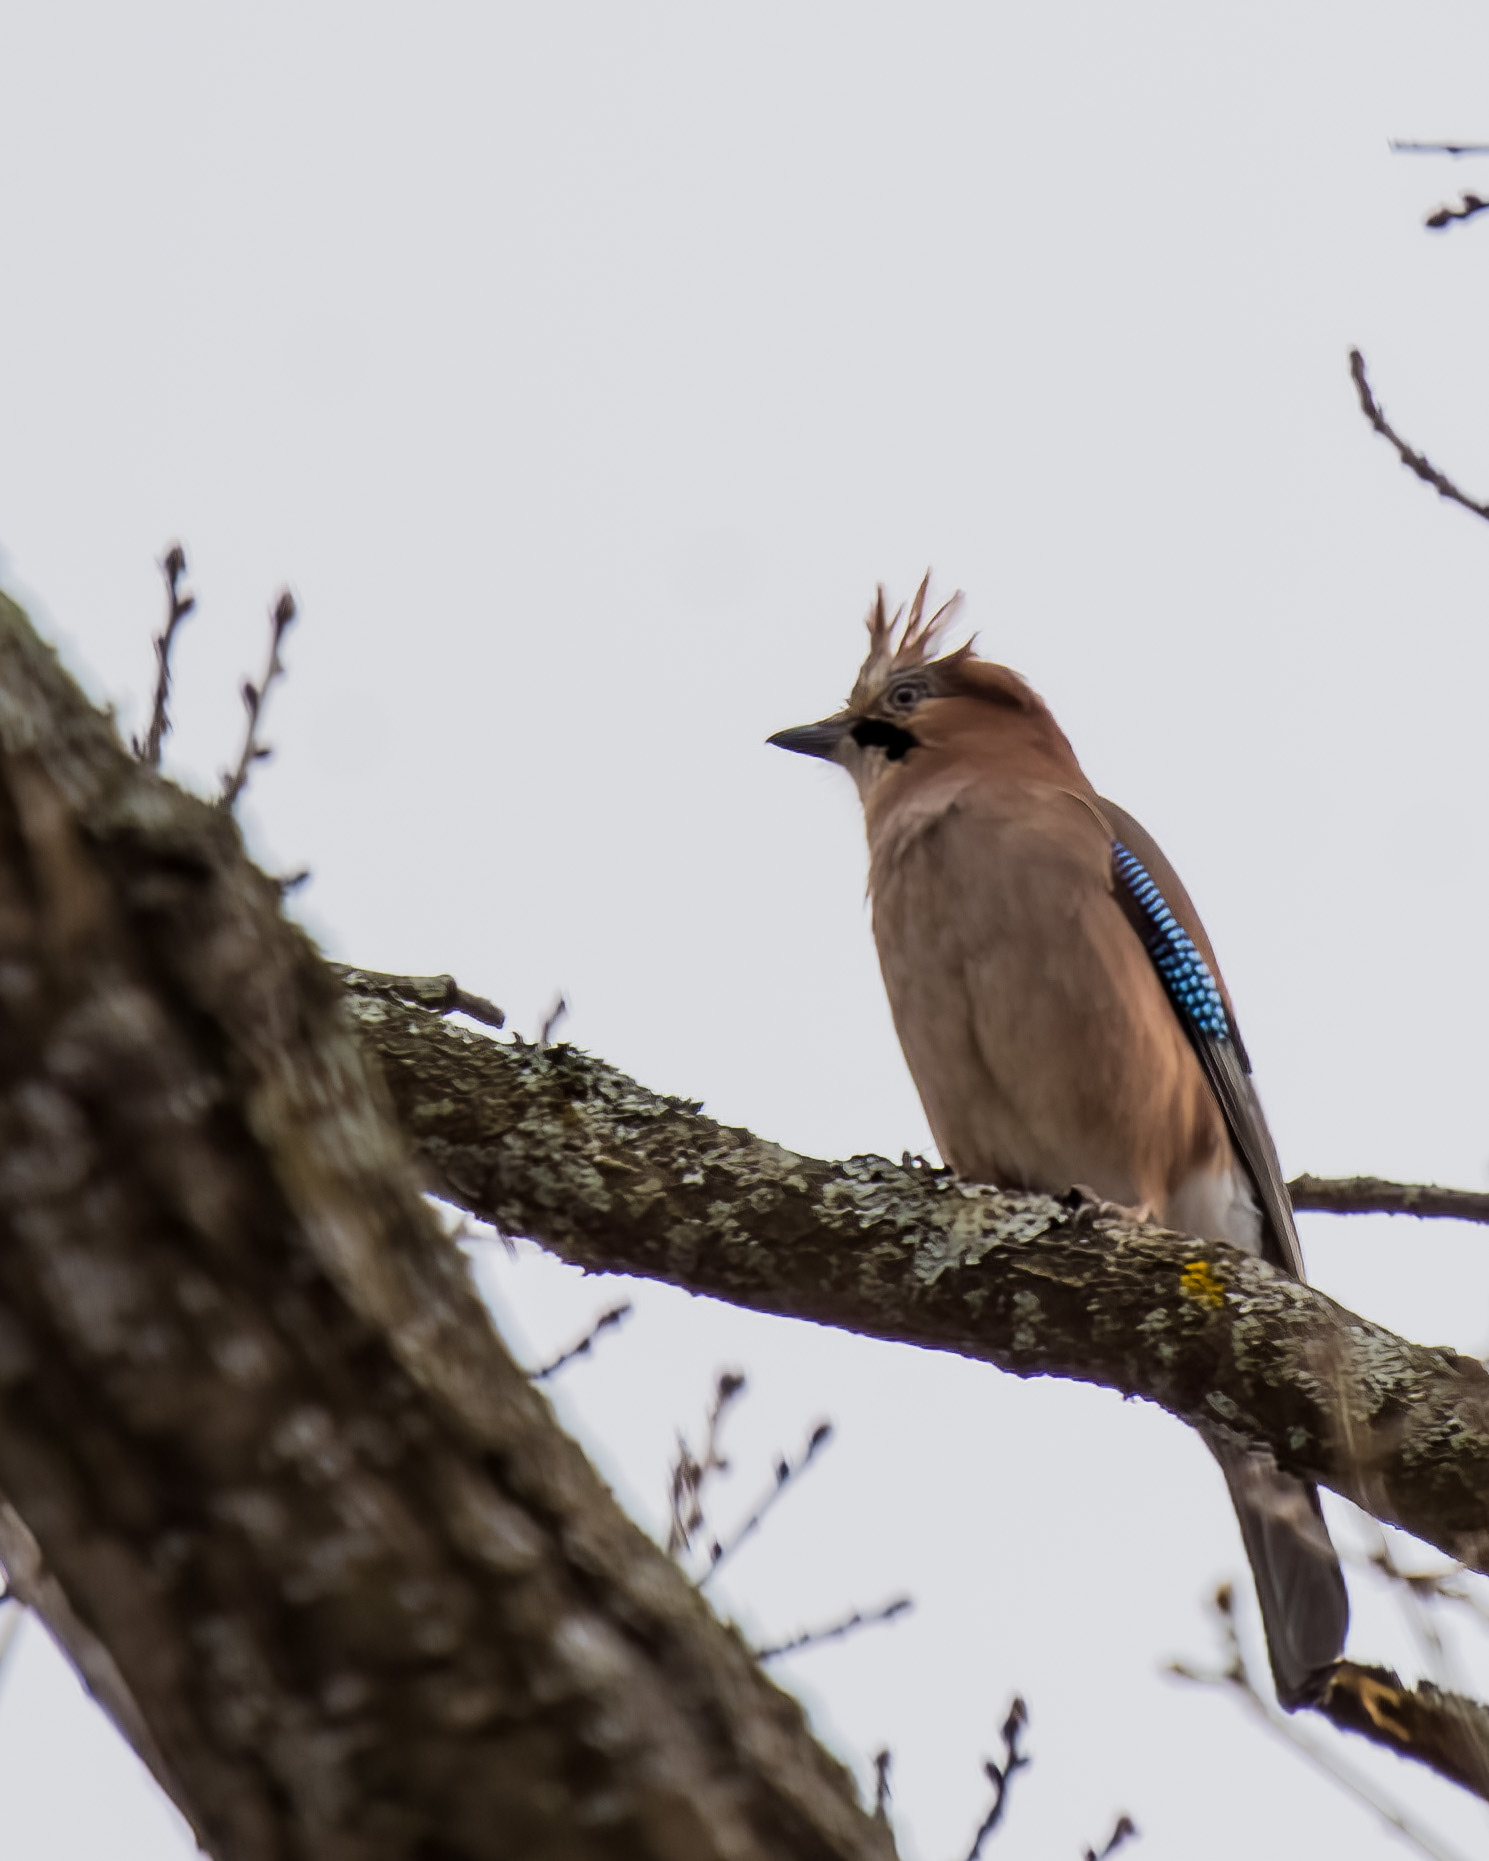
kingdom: Animalia
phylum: Chordata
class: Aves
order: Passeriformes
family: Corvidae
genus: Garrulus
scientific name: Garrulus glandarius
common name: Eurasian jay
